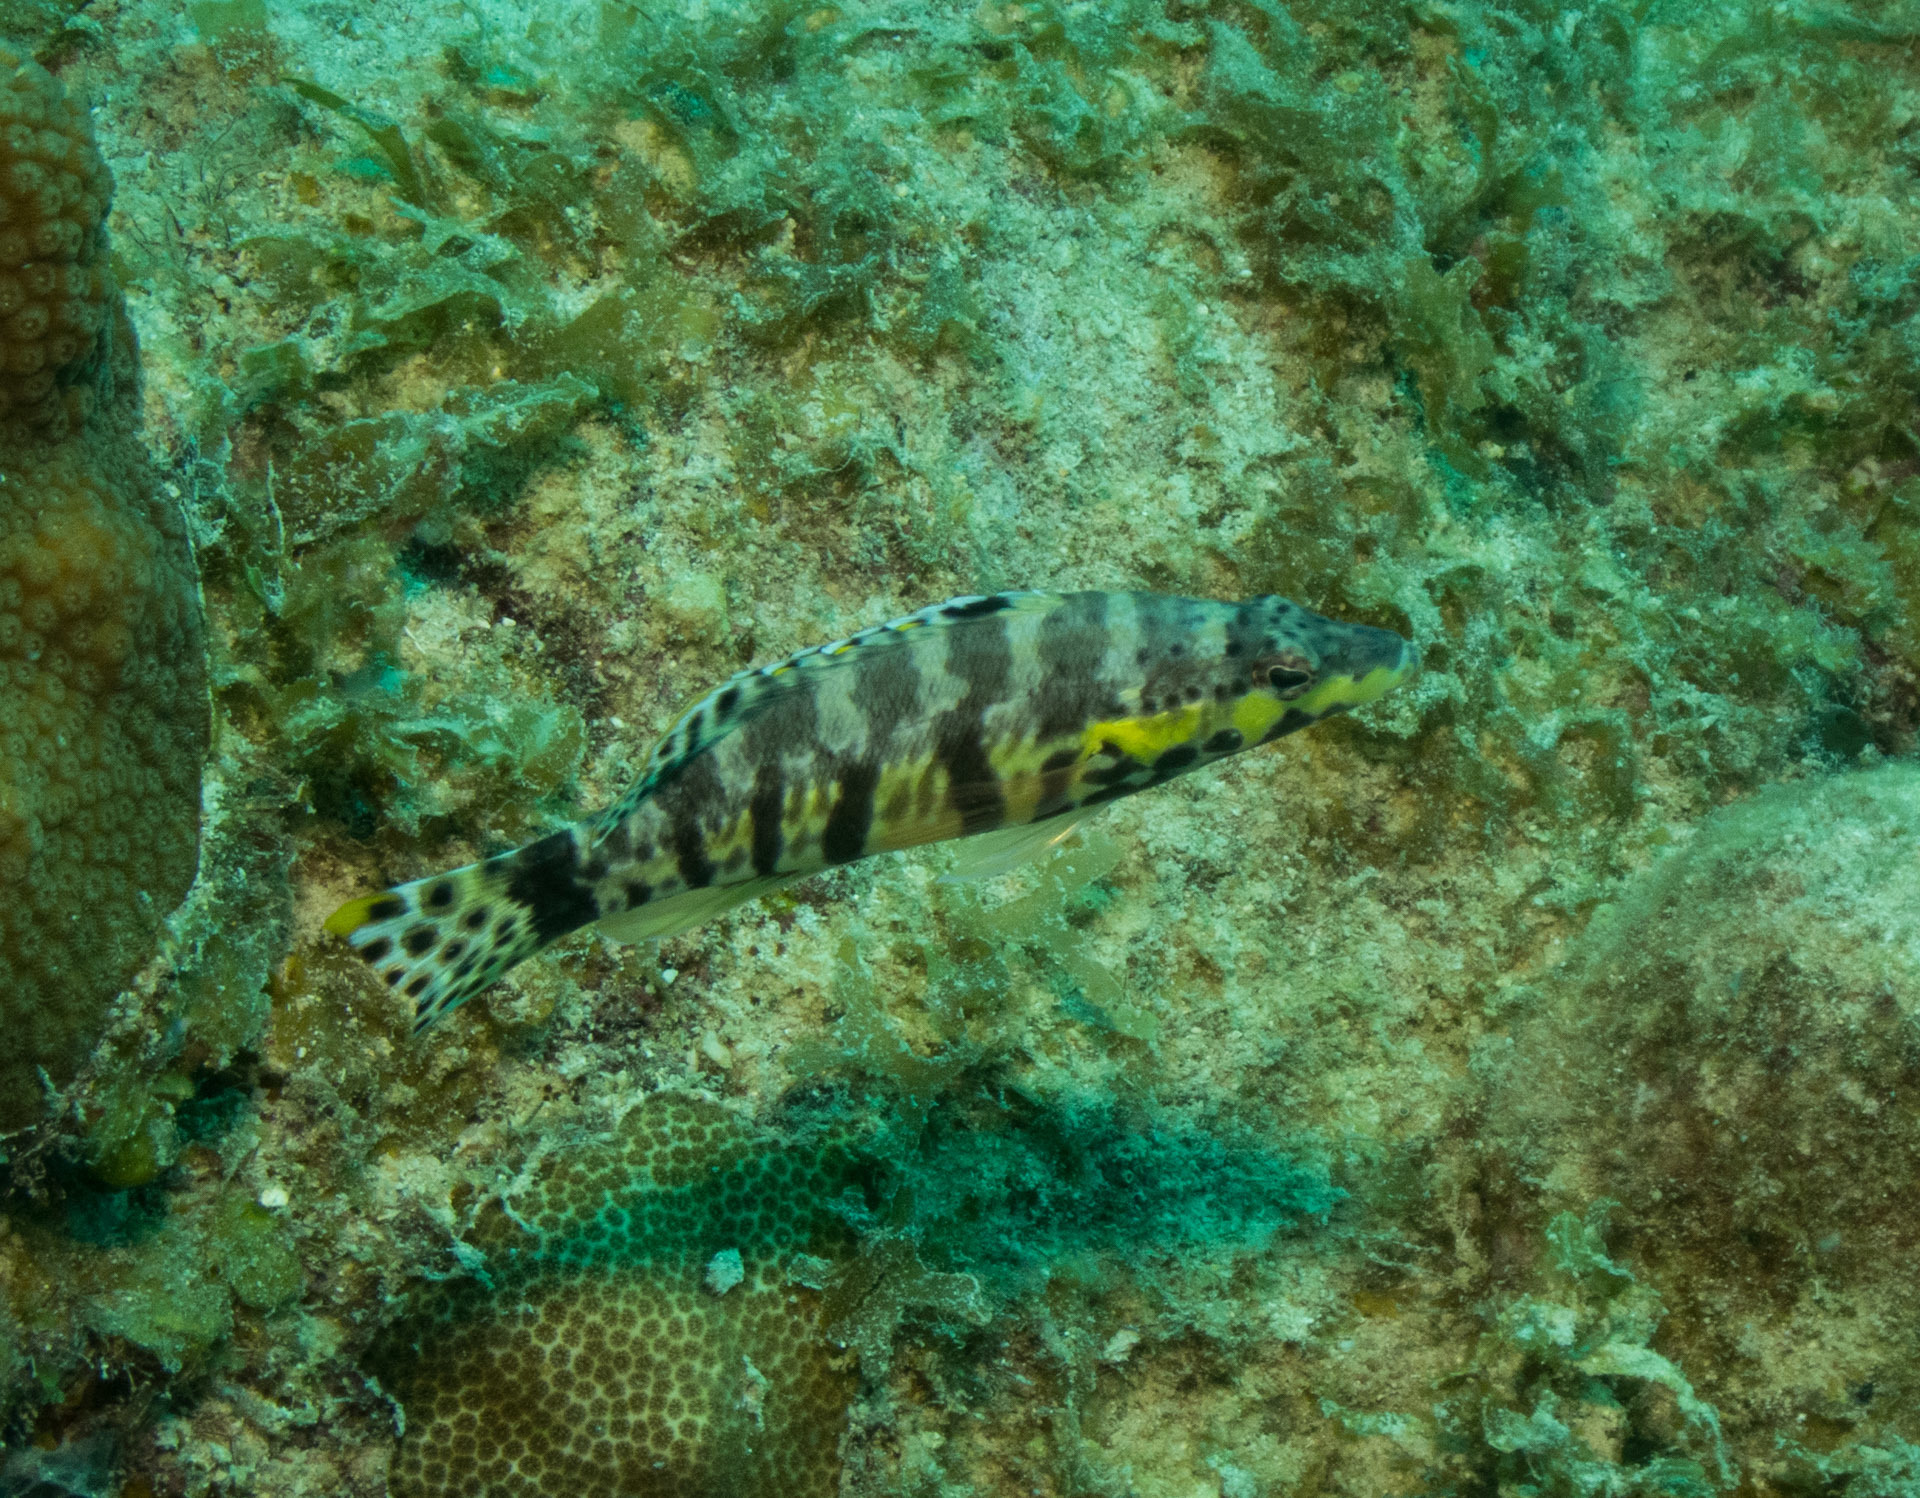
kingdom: Animalia
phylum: Chordata
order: Perciformes
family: Serranidae
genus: Serranus
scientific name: Serranus tigrinus
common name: Harlequin bass
